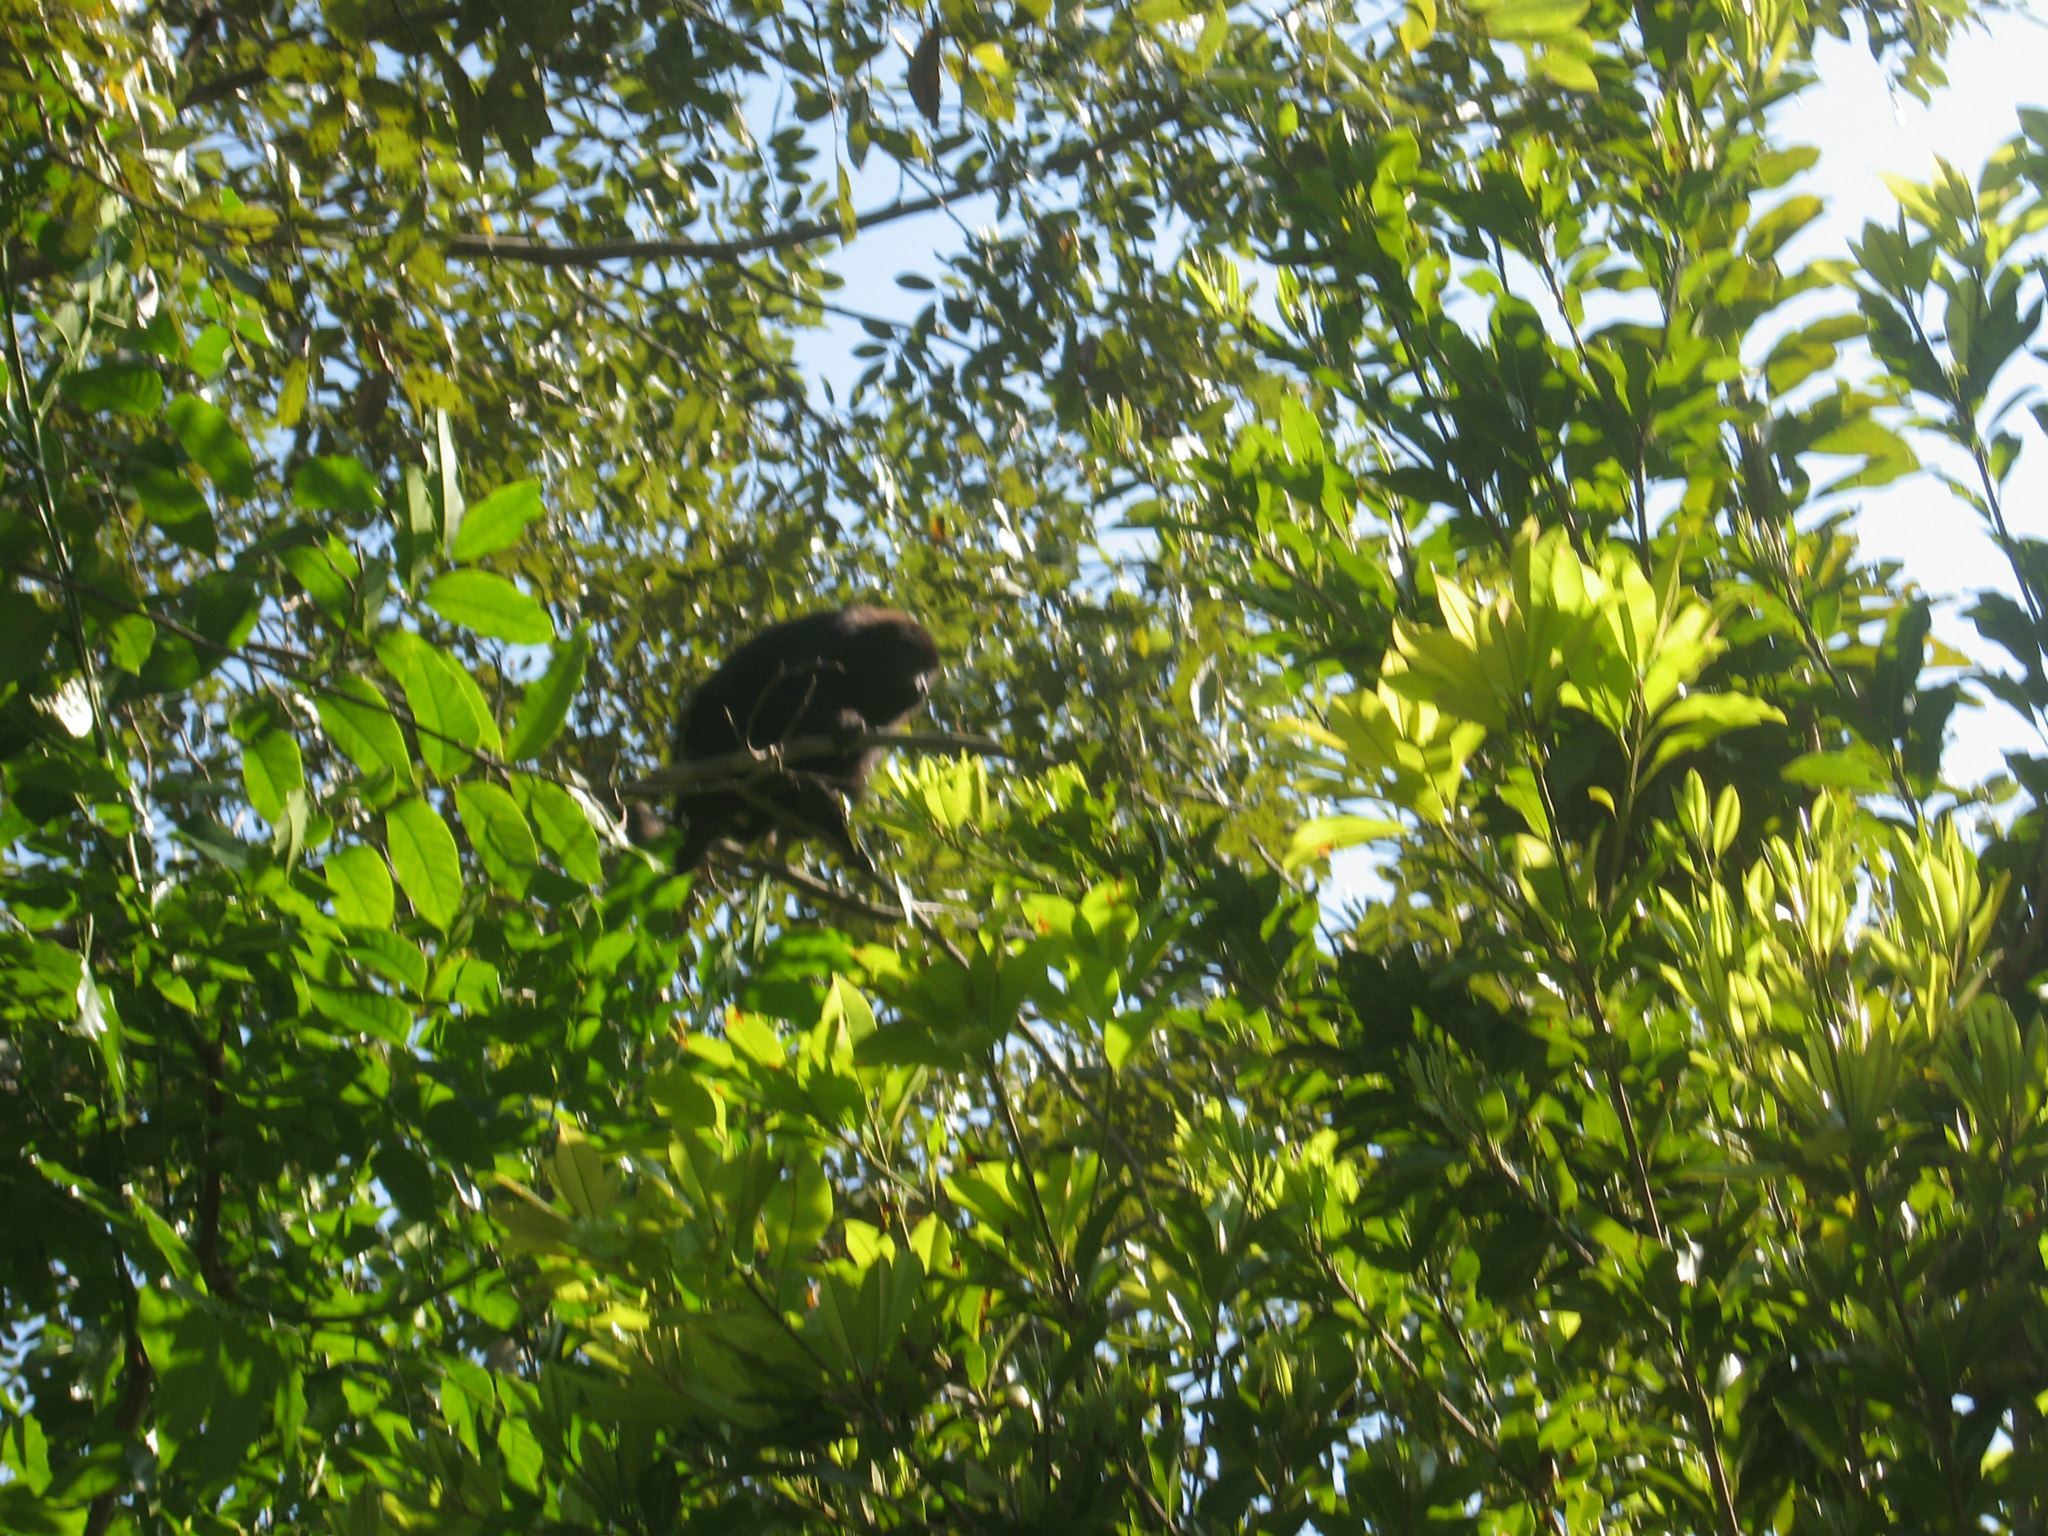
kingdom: Animalia
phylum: Chordata
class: Mammalia
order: Primates
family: Atelidae
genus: Alouatta
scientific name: Alouatta pigra
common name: Guatemalan black howler
